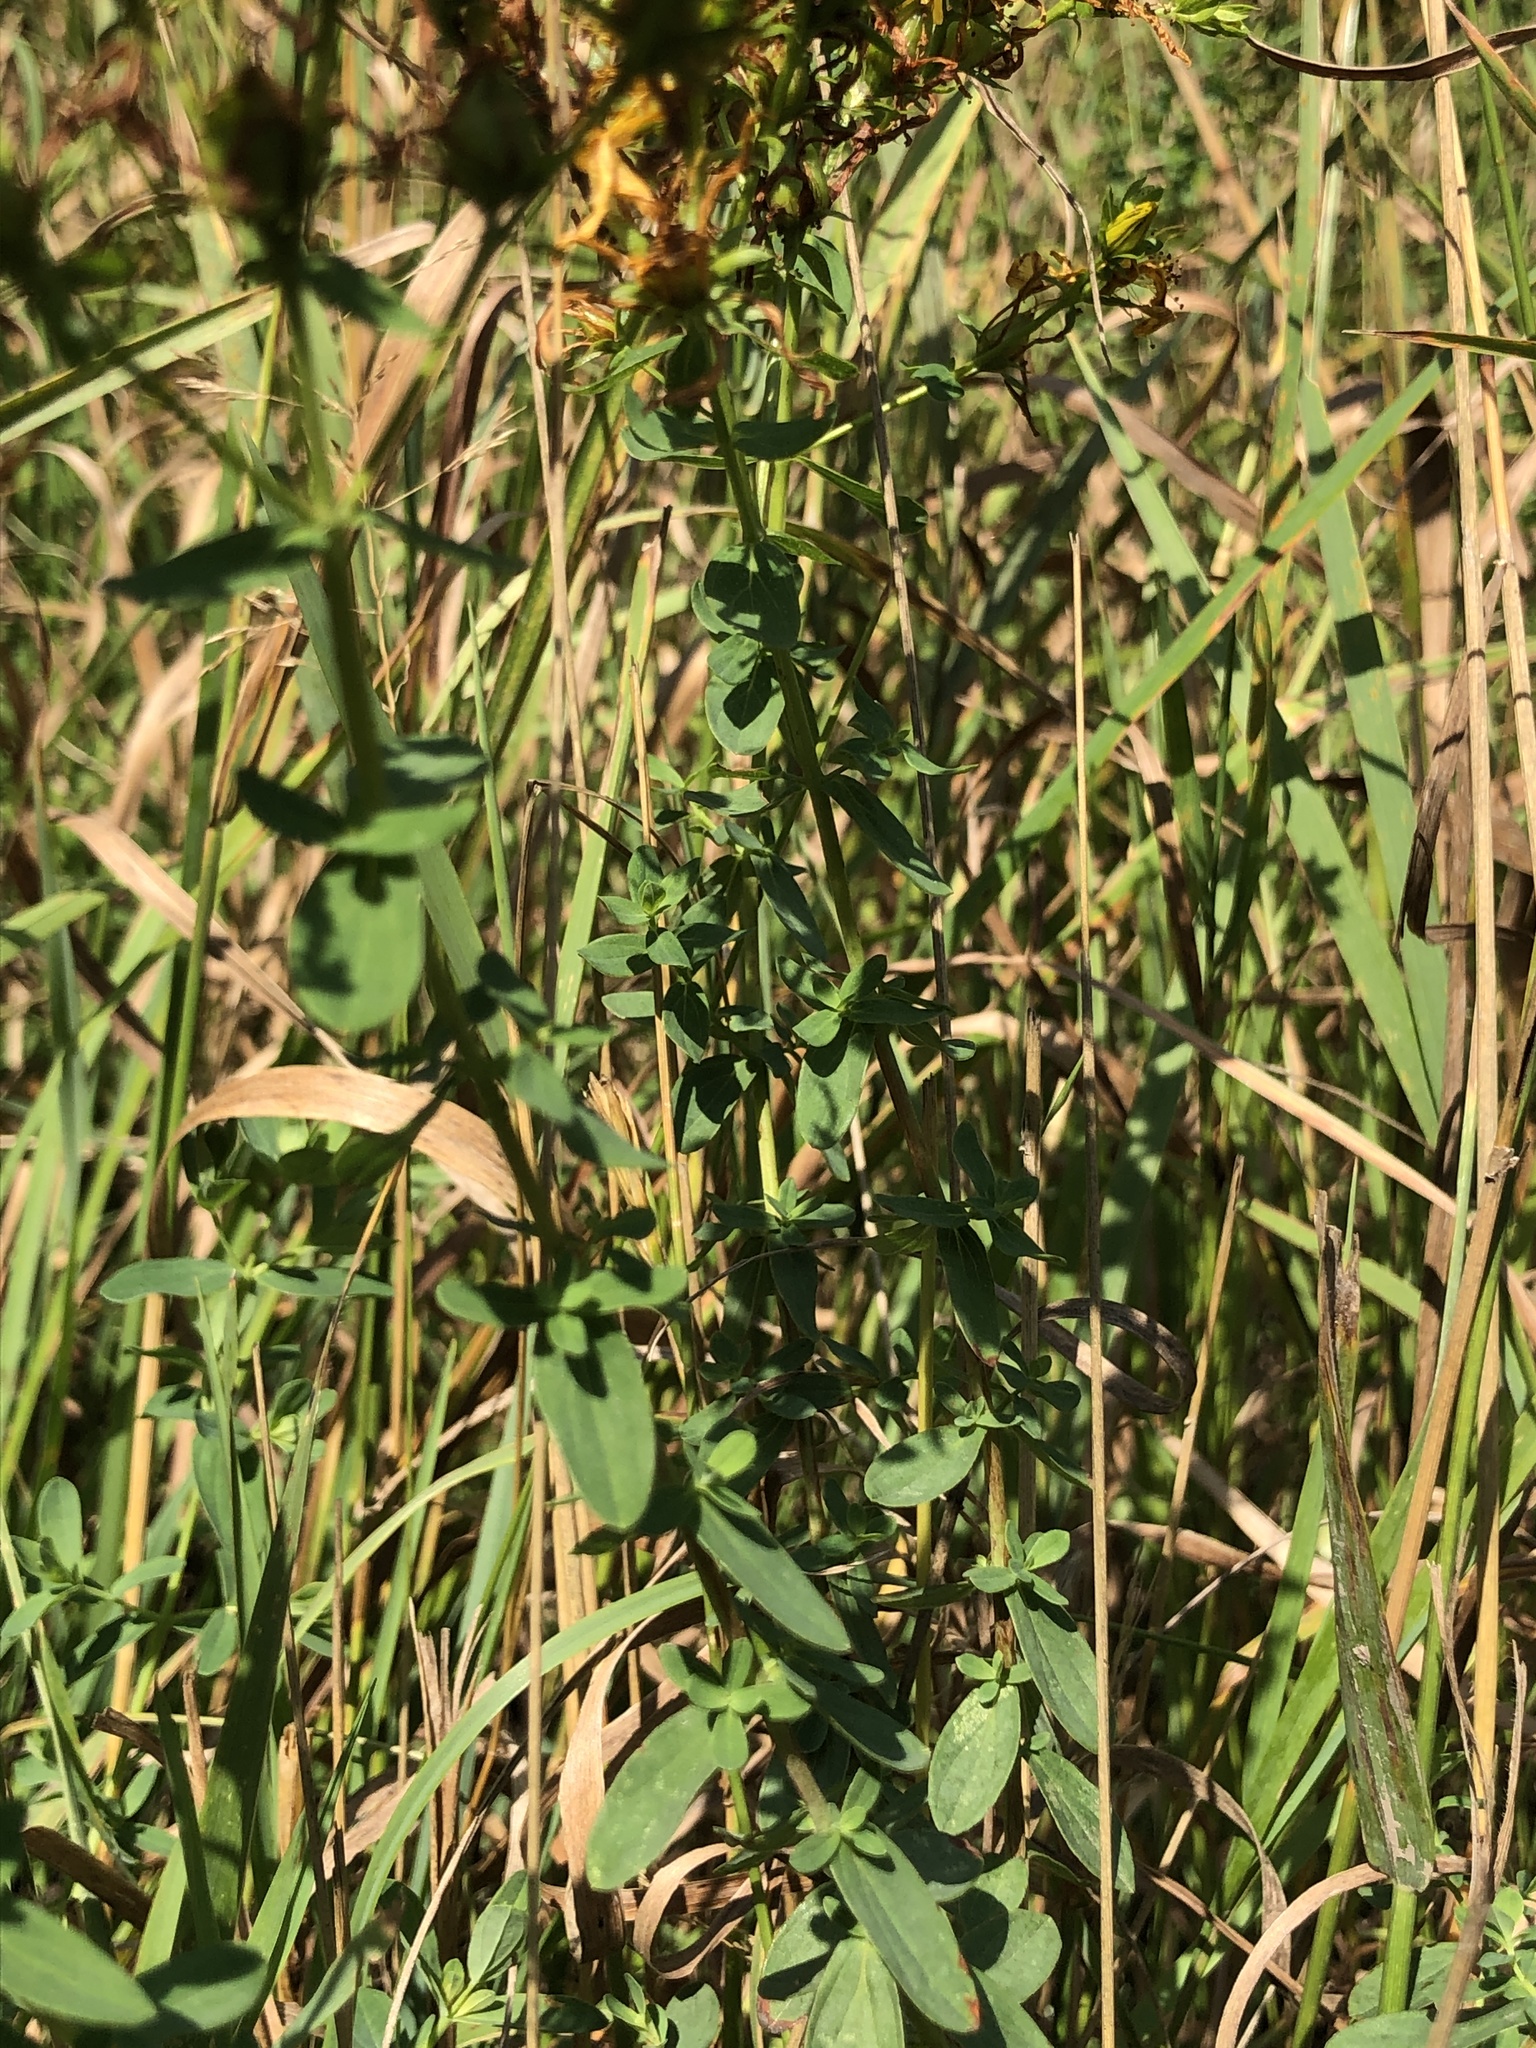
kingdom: Plantae
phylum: Tracheophyta
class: Magnoliopsida
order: Malpighiales
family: Hypericaceae
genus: Hypericum
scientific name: Hypericum perforatum
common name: Common st. johnswort
